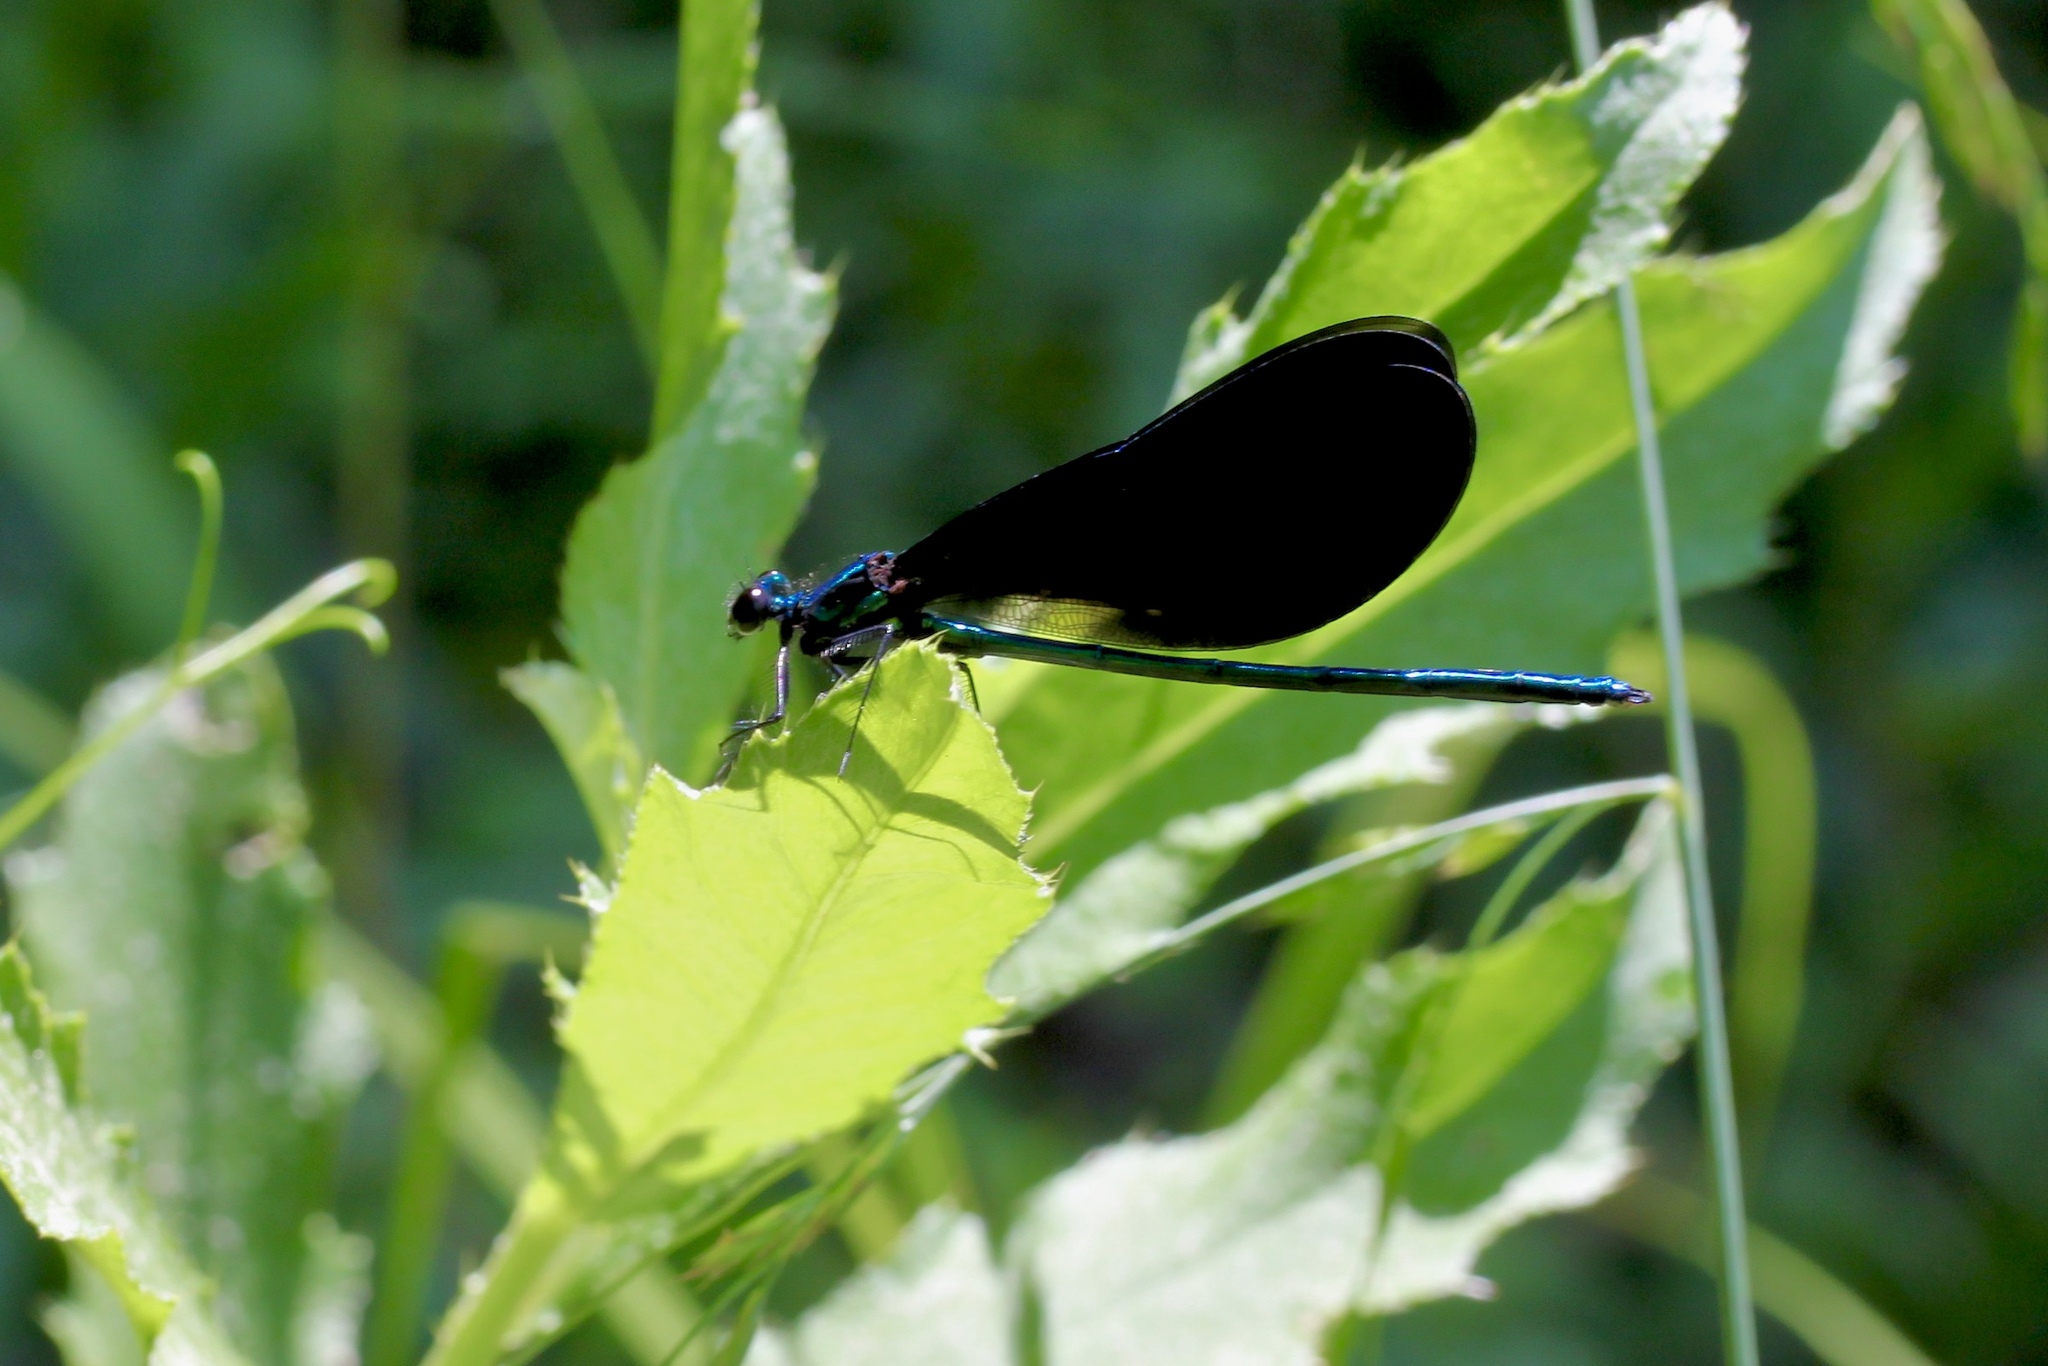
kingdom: Animalia
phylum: Arthropoda
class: Insecta
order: Odonata
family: Calopterygidae
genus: Calopteryx
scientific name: Calopteryx maculata
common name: Ebony jewelwing
